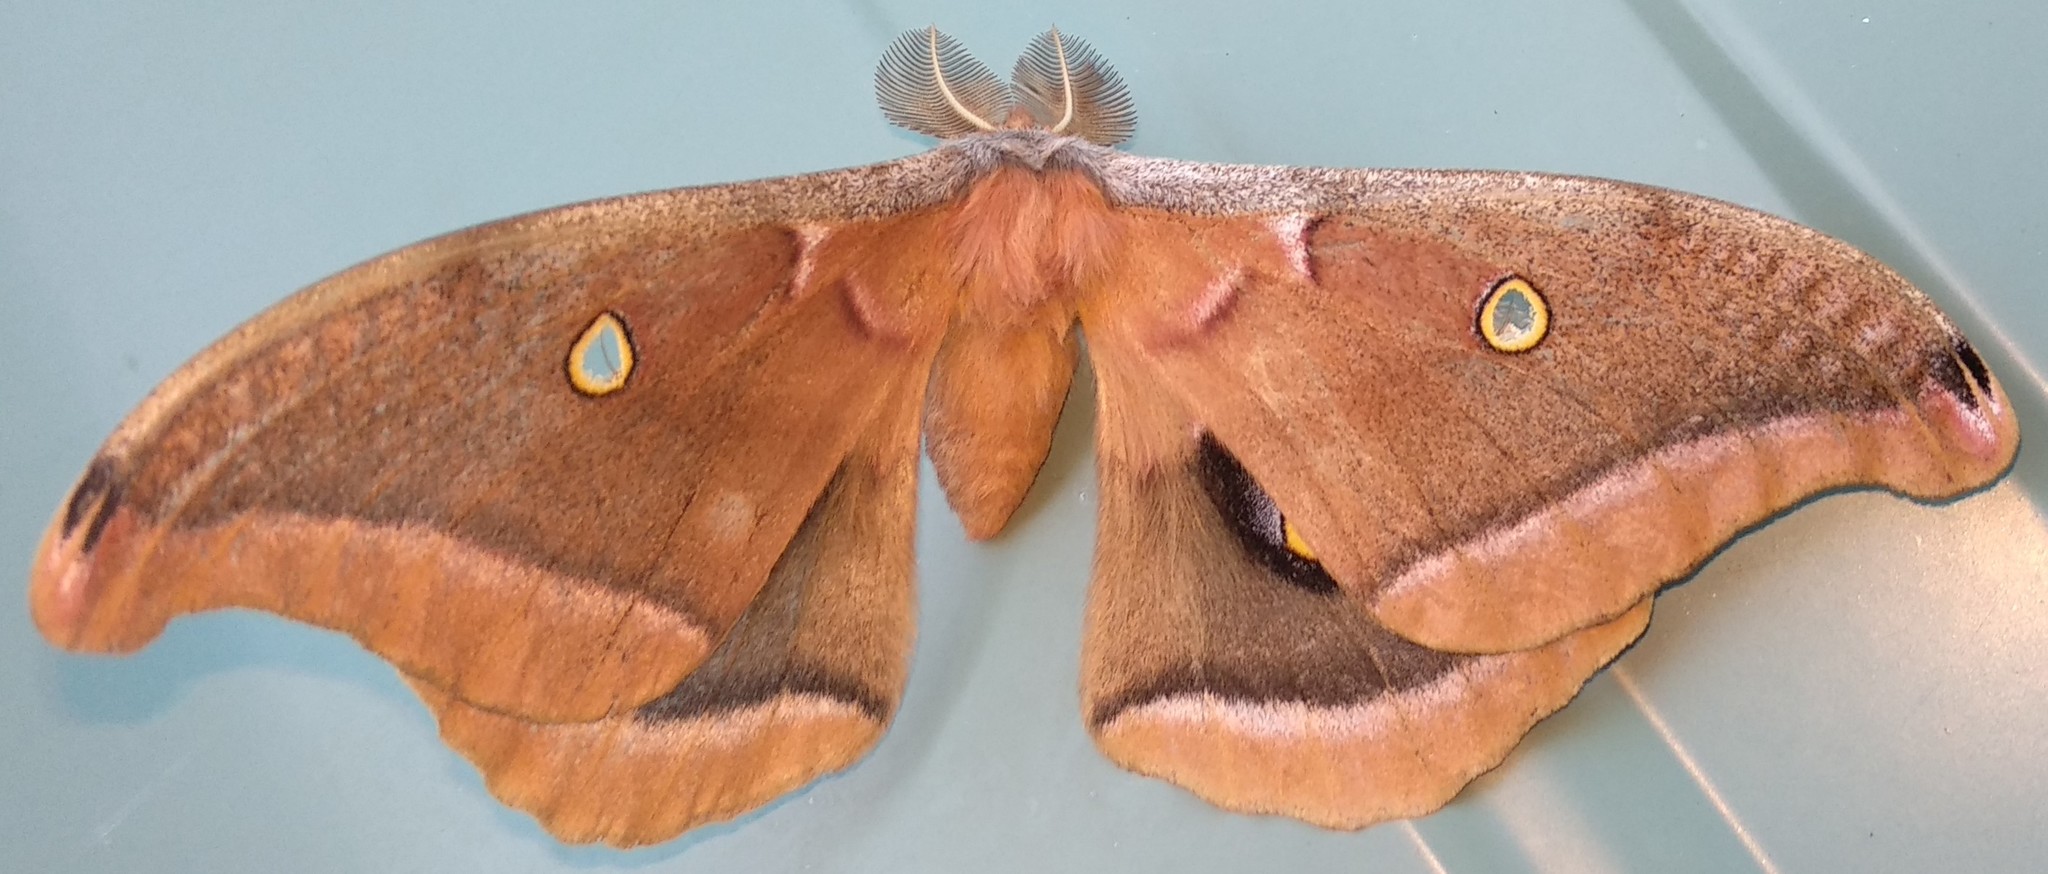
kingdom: Animalia
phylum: Arthropoda
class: Insecta
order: Lepidoptera
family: Saturniidae
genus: Antheraea
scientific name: Antheraea polyphemus
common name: Polyphemus moth
